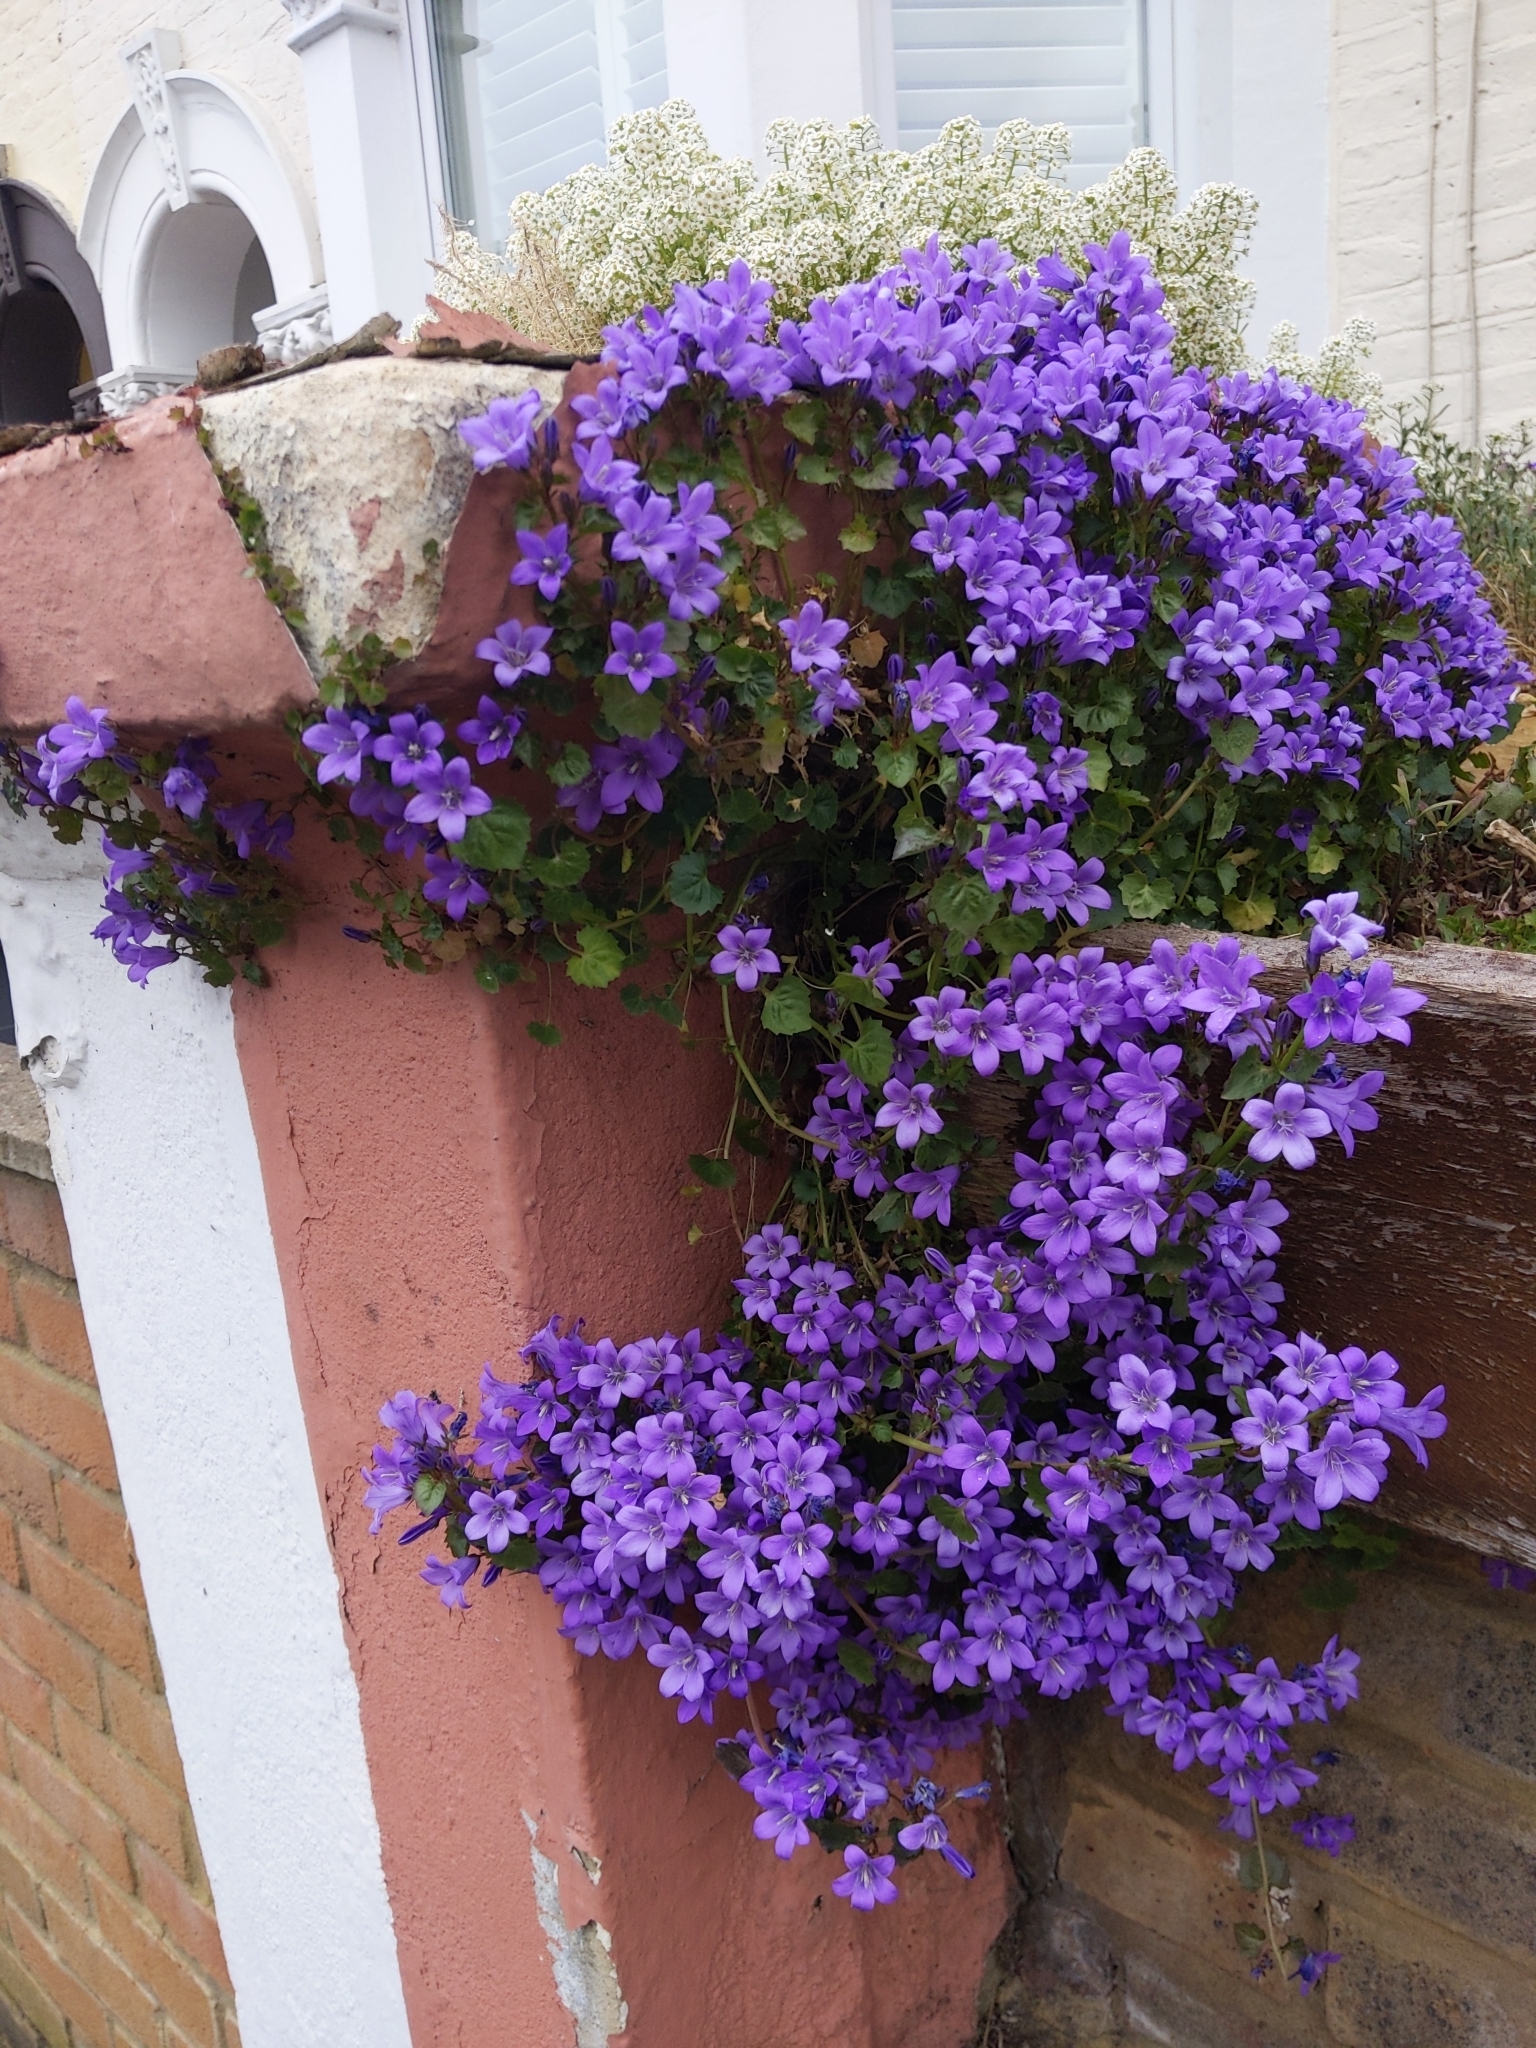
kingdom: Plantae
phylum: Tracheophyta
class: Magnoliopsida
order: Asterales
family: Campanulaceae
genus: Campanula
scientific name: Campanula portenschlagiana
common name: Adria bellflower
